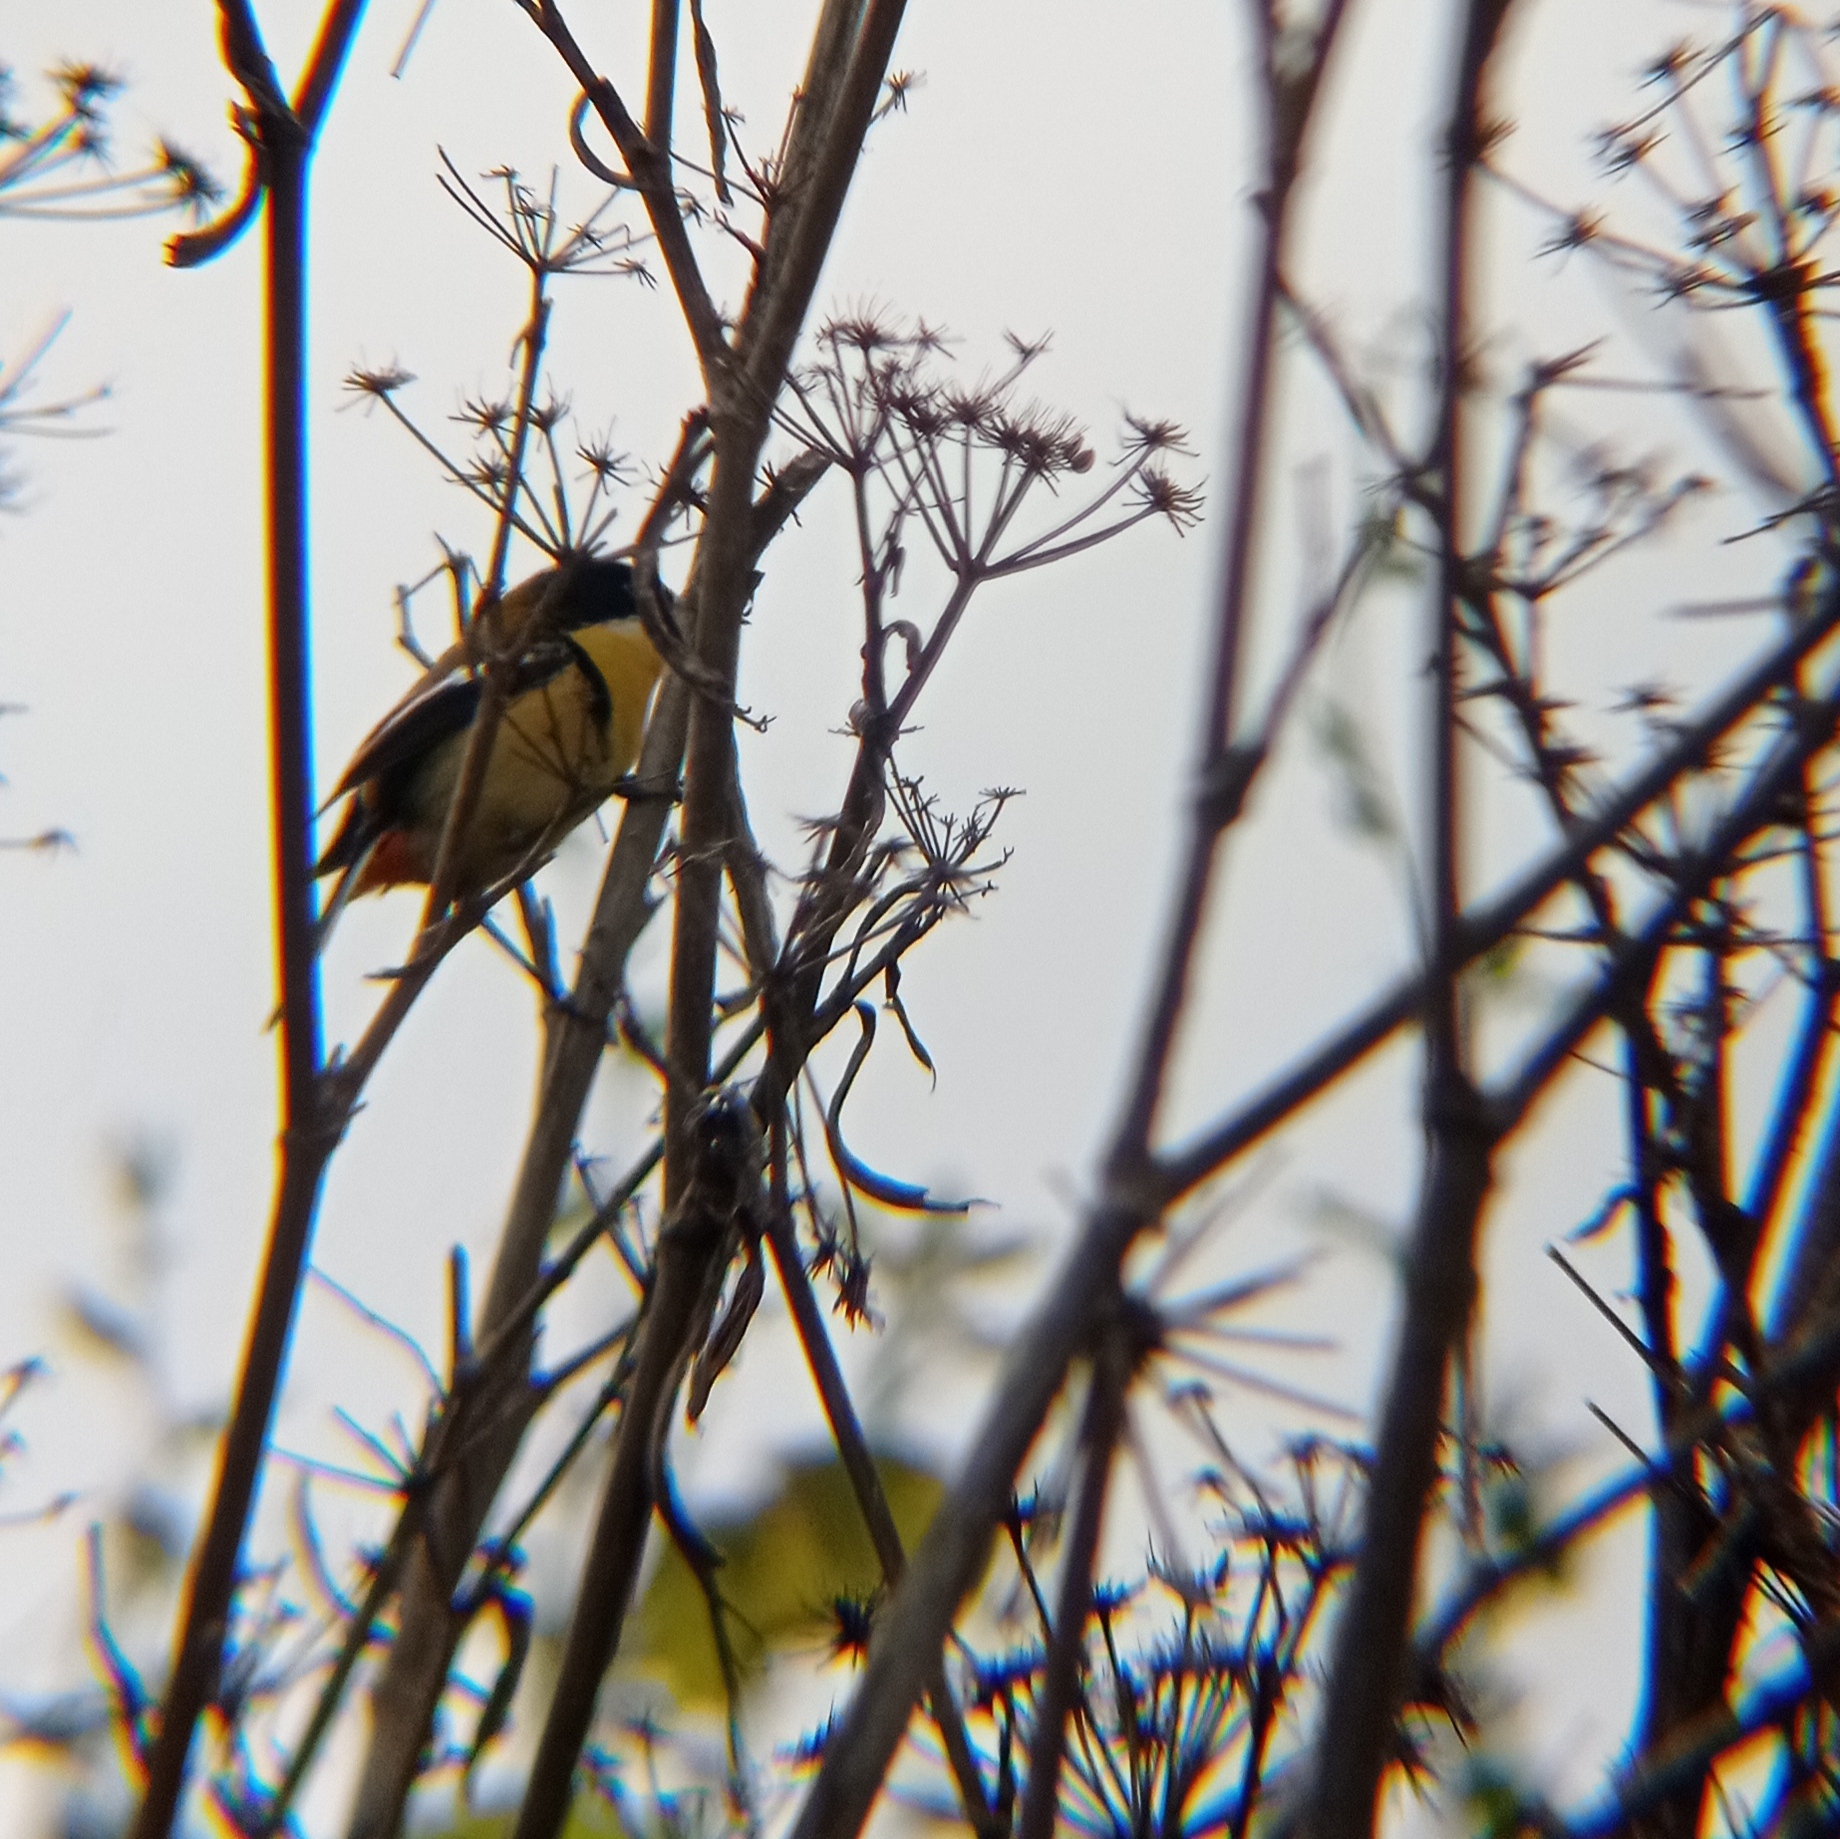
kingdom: Animalia
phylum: Chordata
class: Aves
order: Passeriformes
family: Tyrannidae
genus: Tachuris
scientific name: Tachuris rubrigastra
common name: Many-colored rush tyrant
